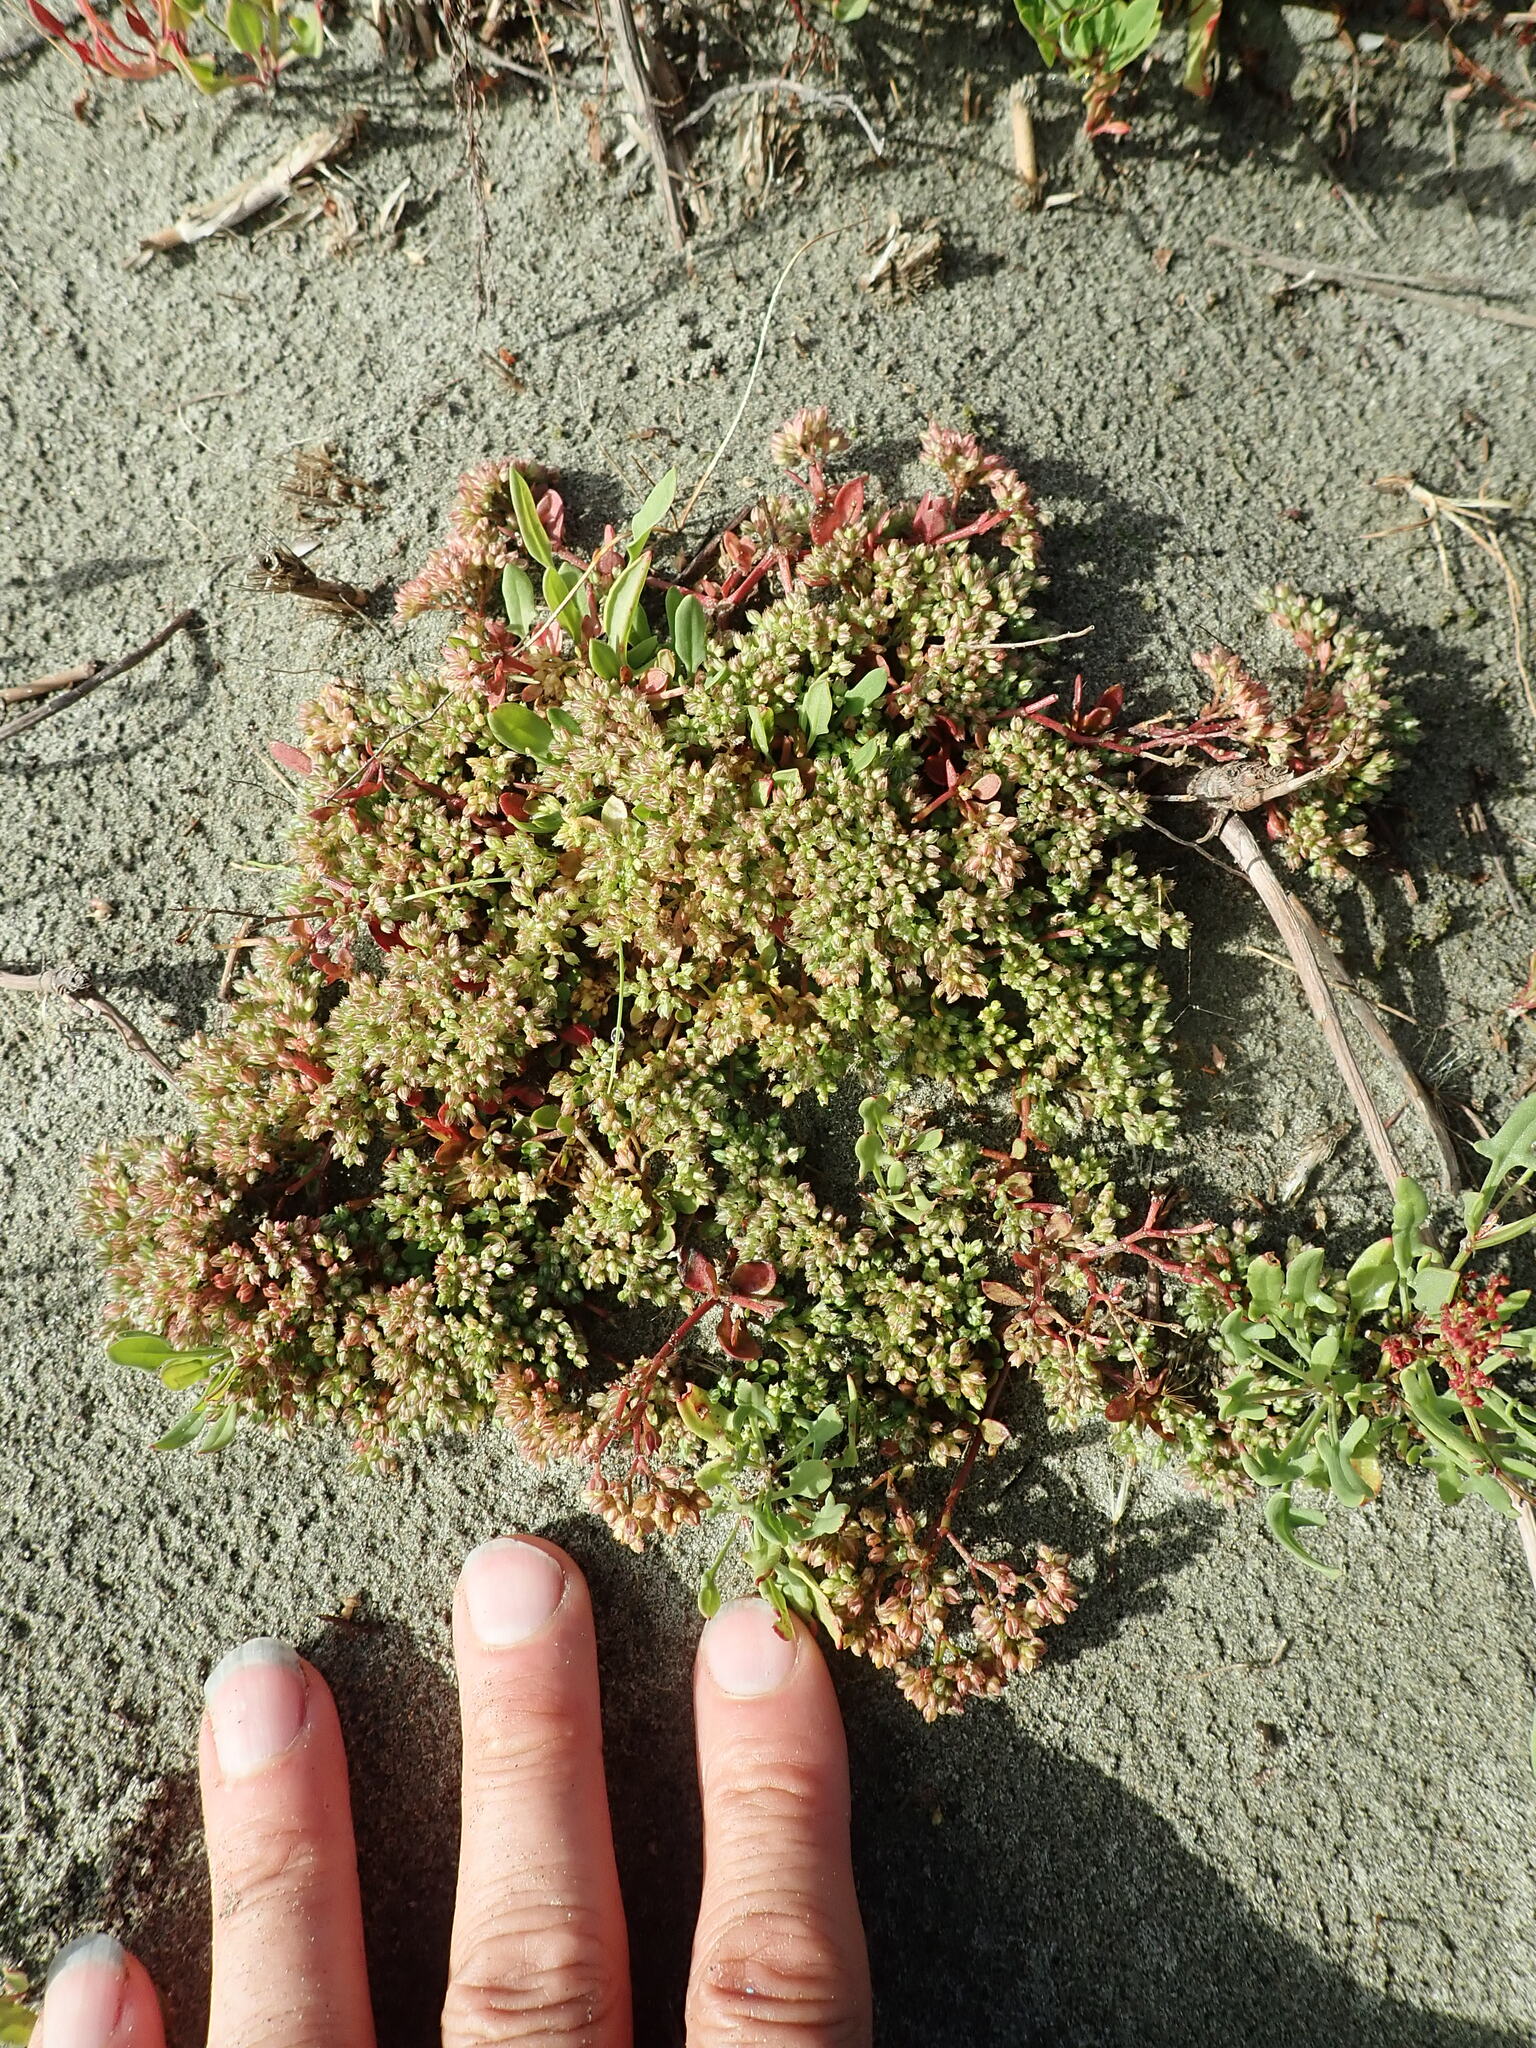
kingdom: Plantae
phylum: Tracheophyta
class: Magnoliopsida
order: Caryophyllales
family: Caryophyllaceae
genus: Polycarpon
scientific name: Polycarpon tetraphyllum
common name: Four-leaved all-seed
